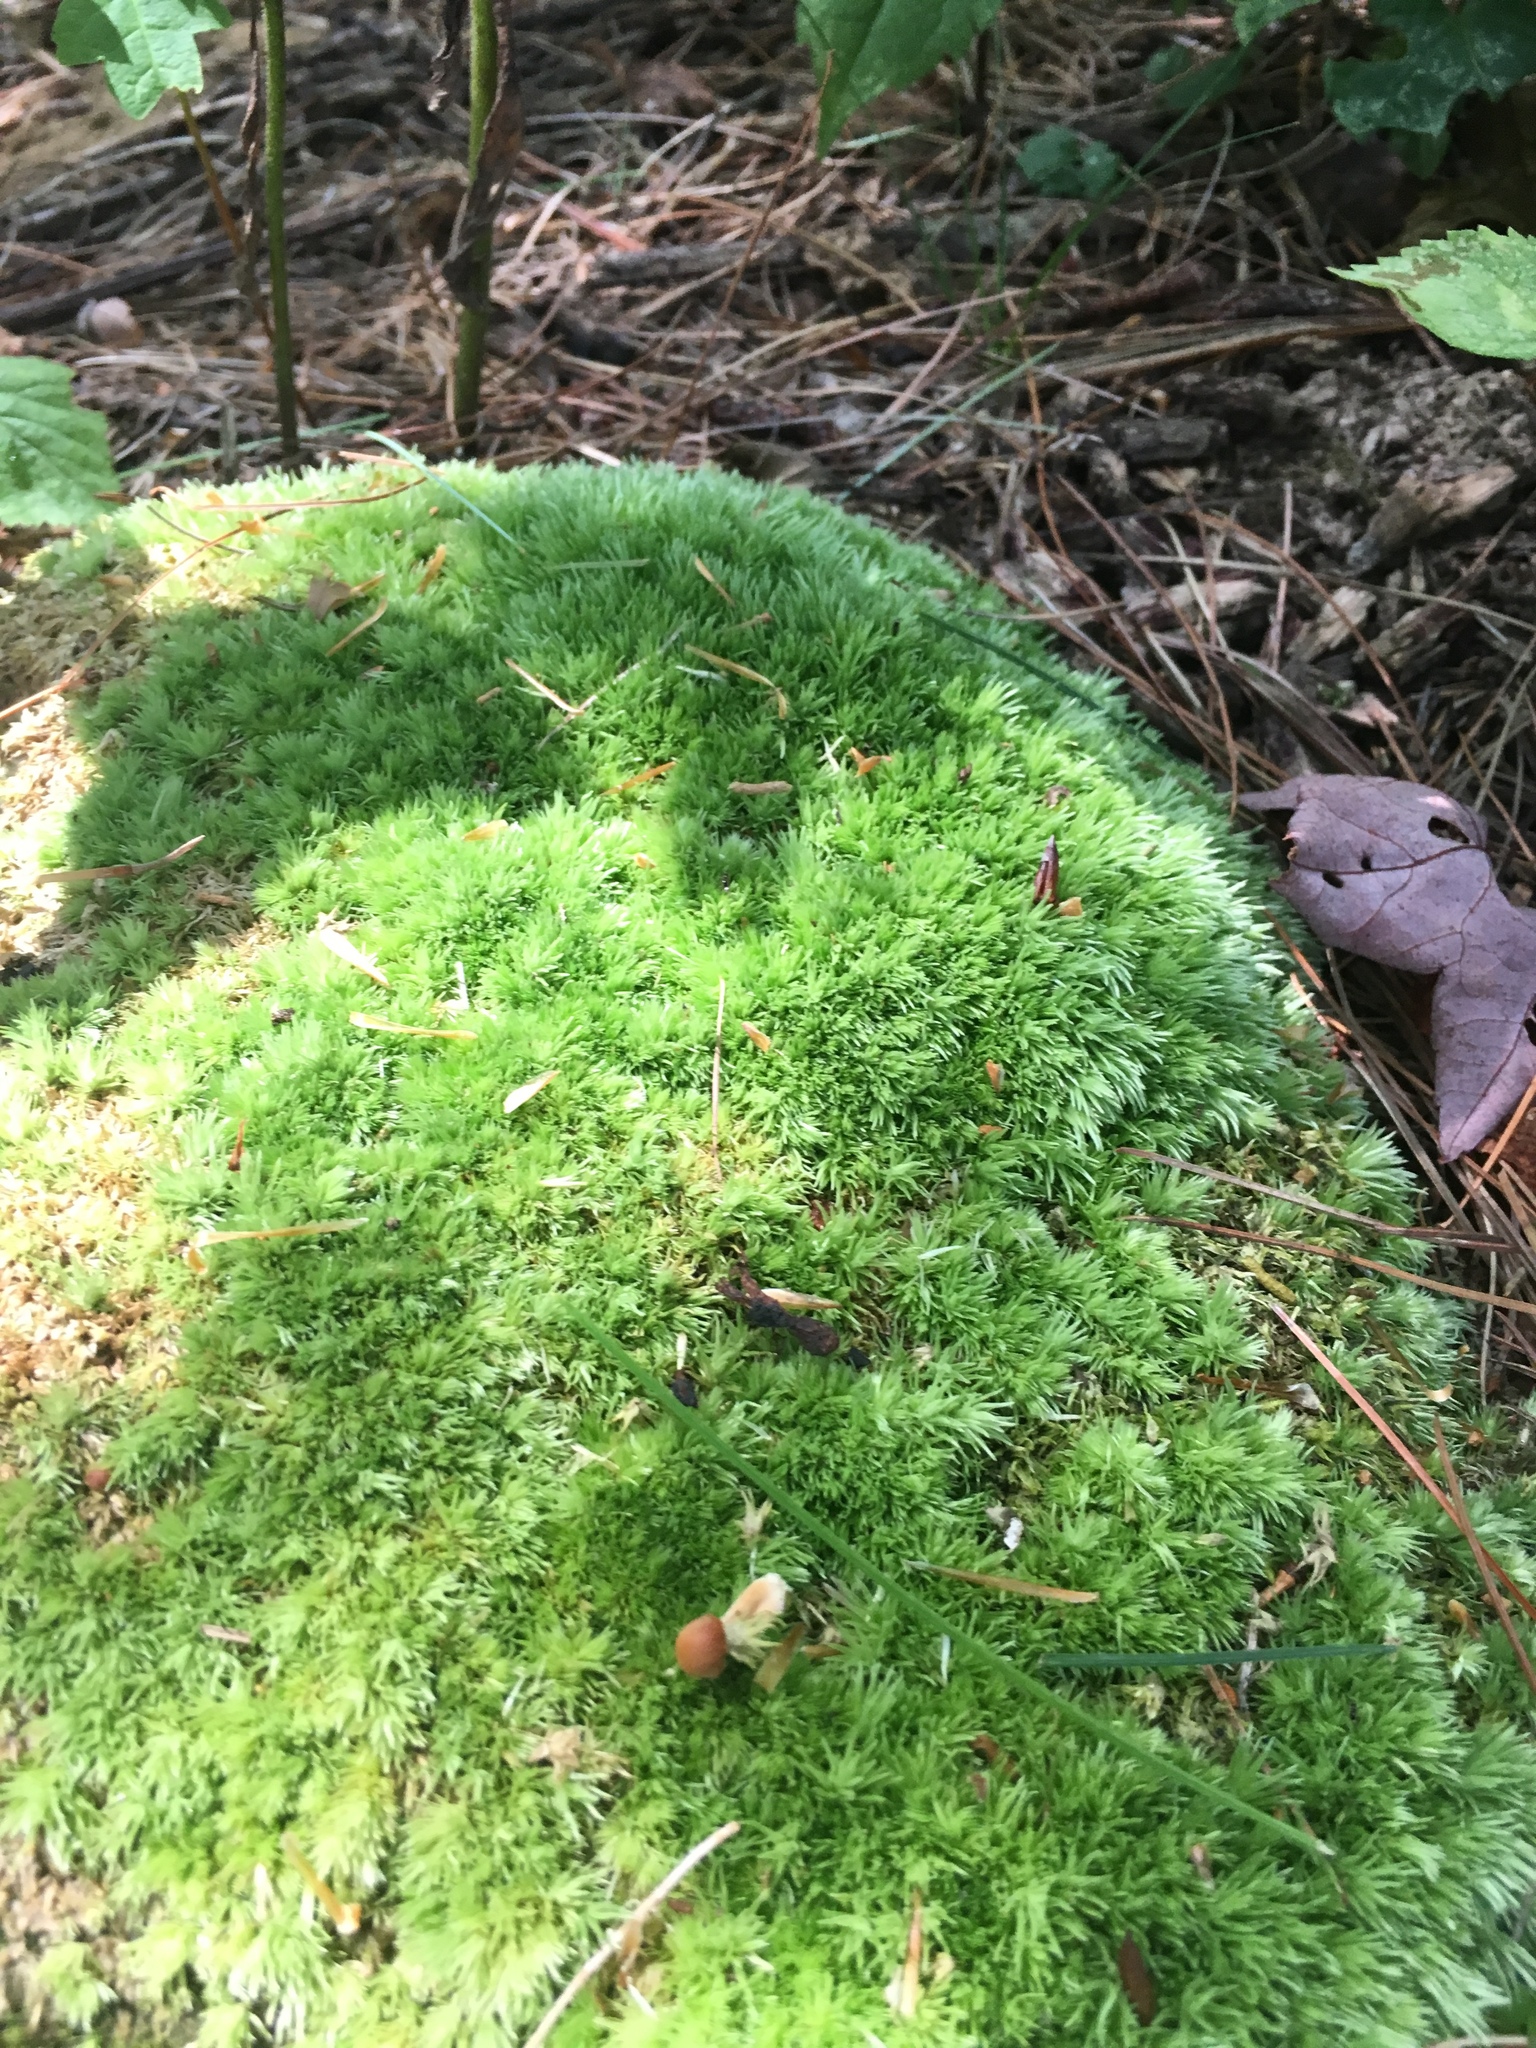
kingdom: Plantae
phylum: Bryophyta
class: Bryopsida
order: Dicranales
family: Leucobryaceae
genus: Leucobryum
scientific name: Leucobryum glaucum
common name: Large white-moss
